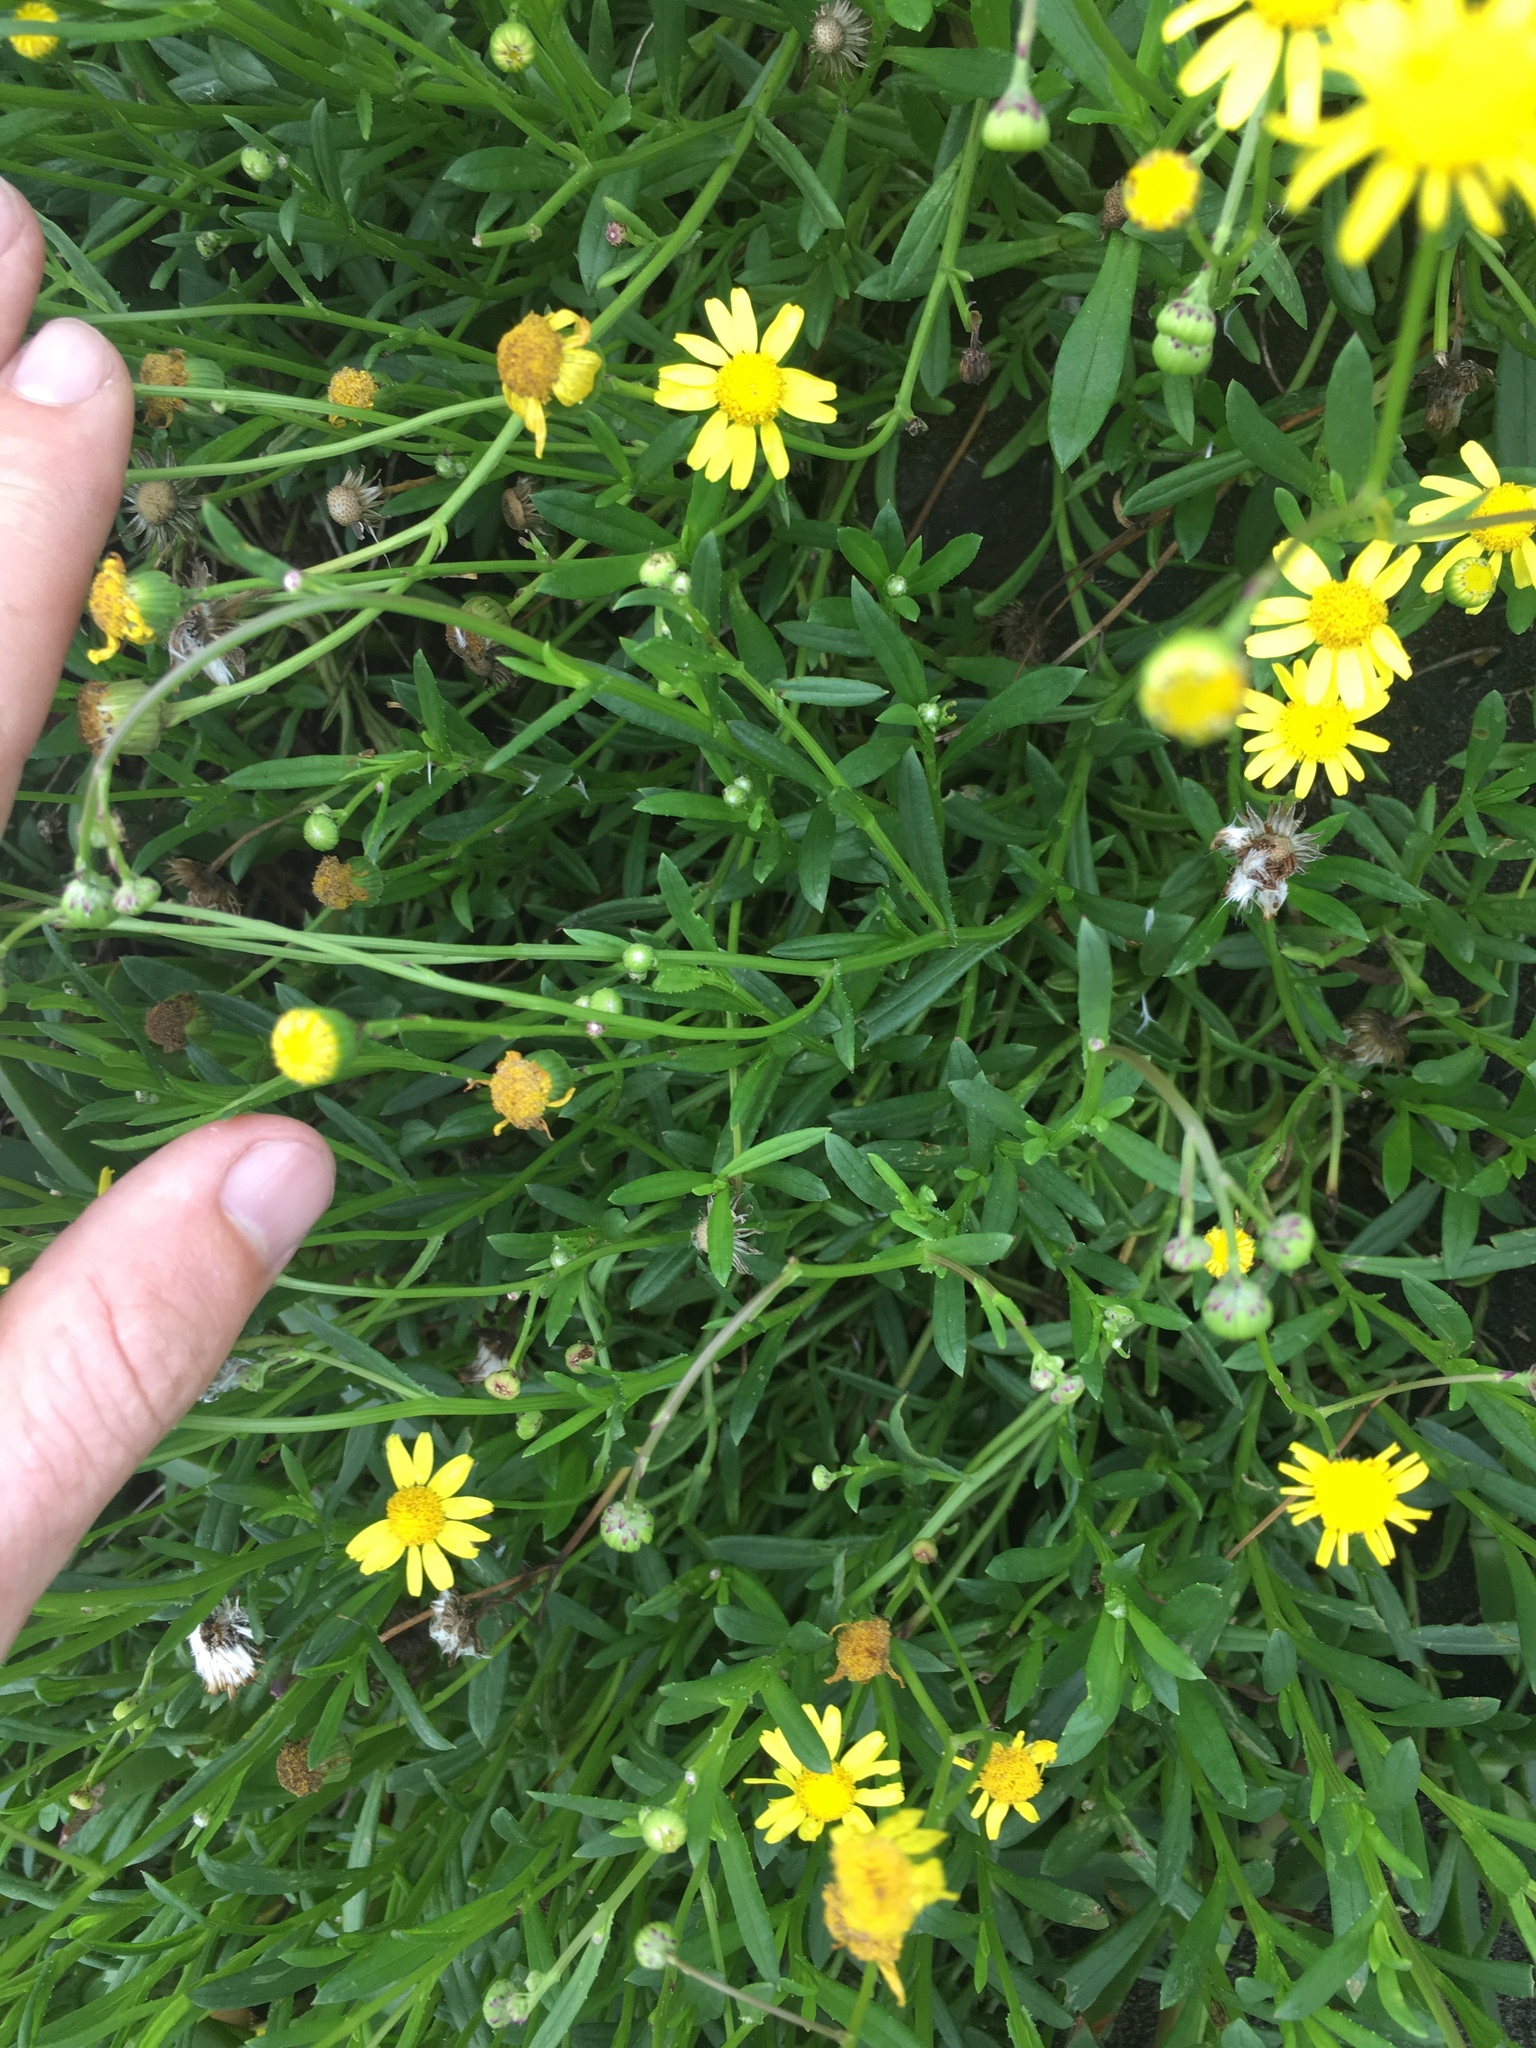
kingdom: Plantae
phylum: Tracheophyta
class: Magnoliopsida
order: Asterales
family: Asteraceae
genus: Senecio
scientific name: Senecio skirrhodon
